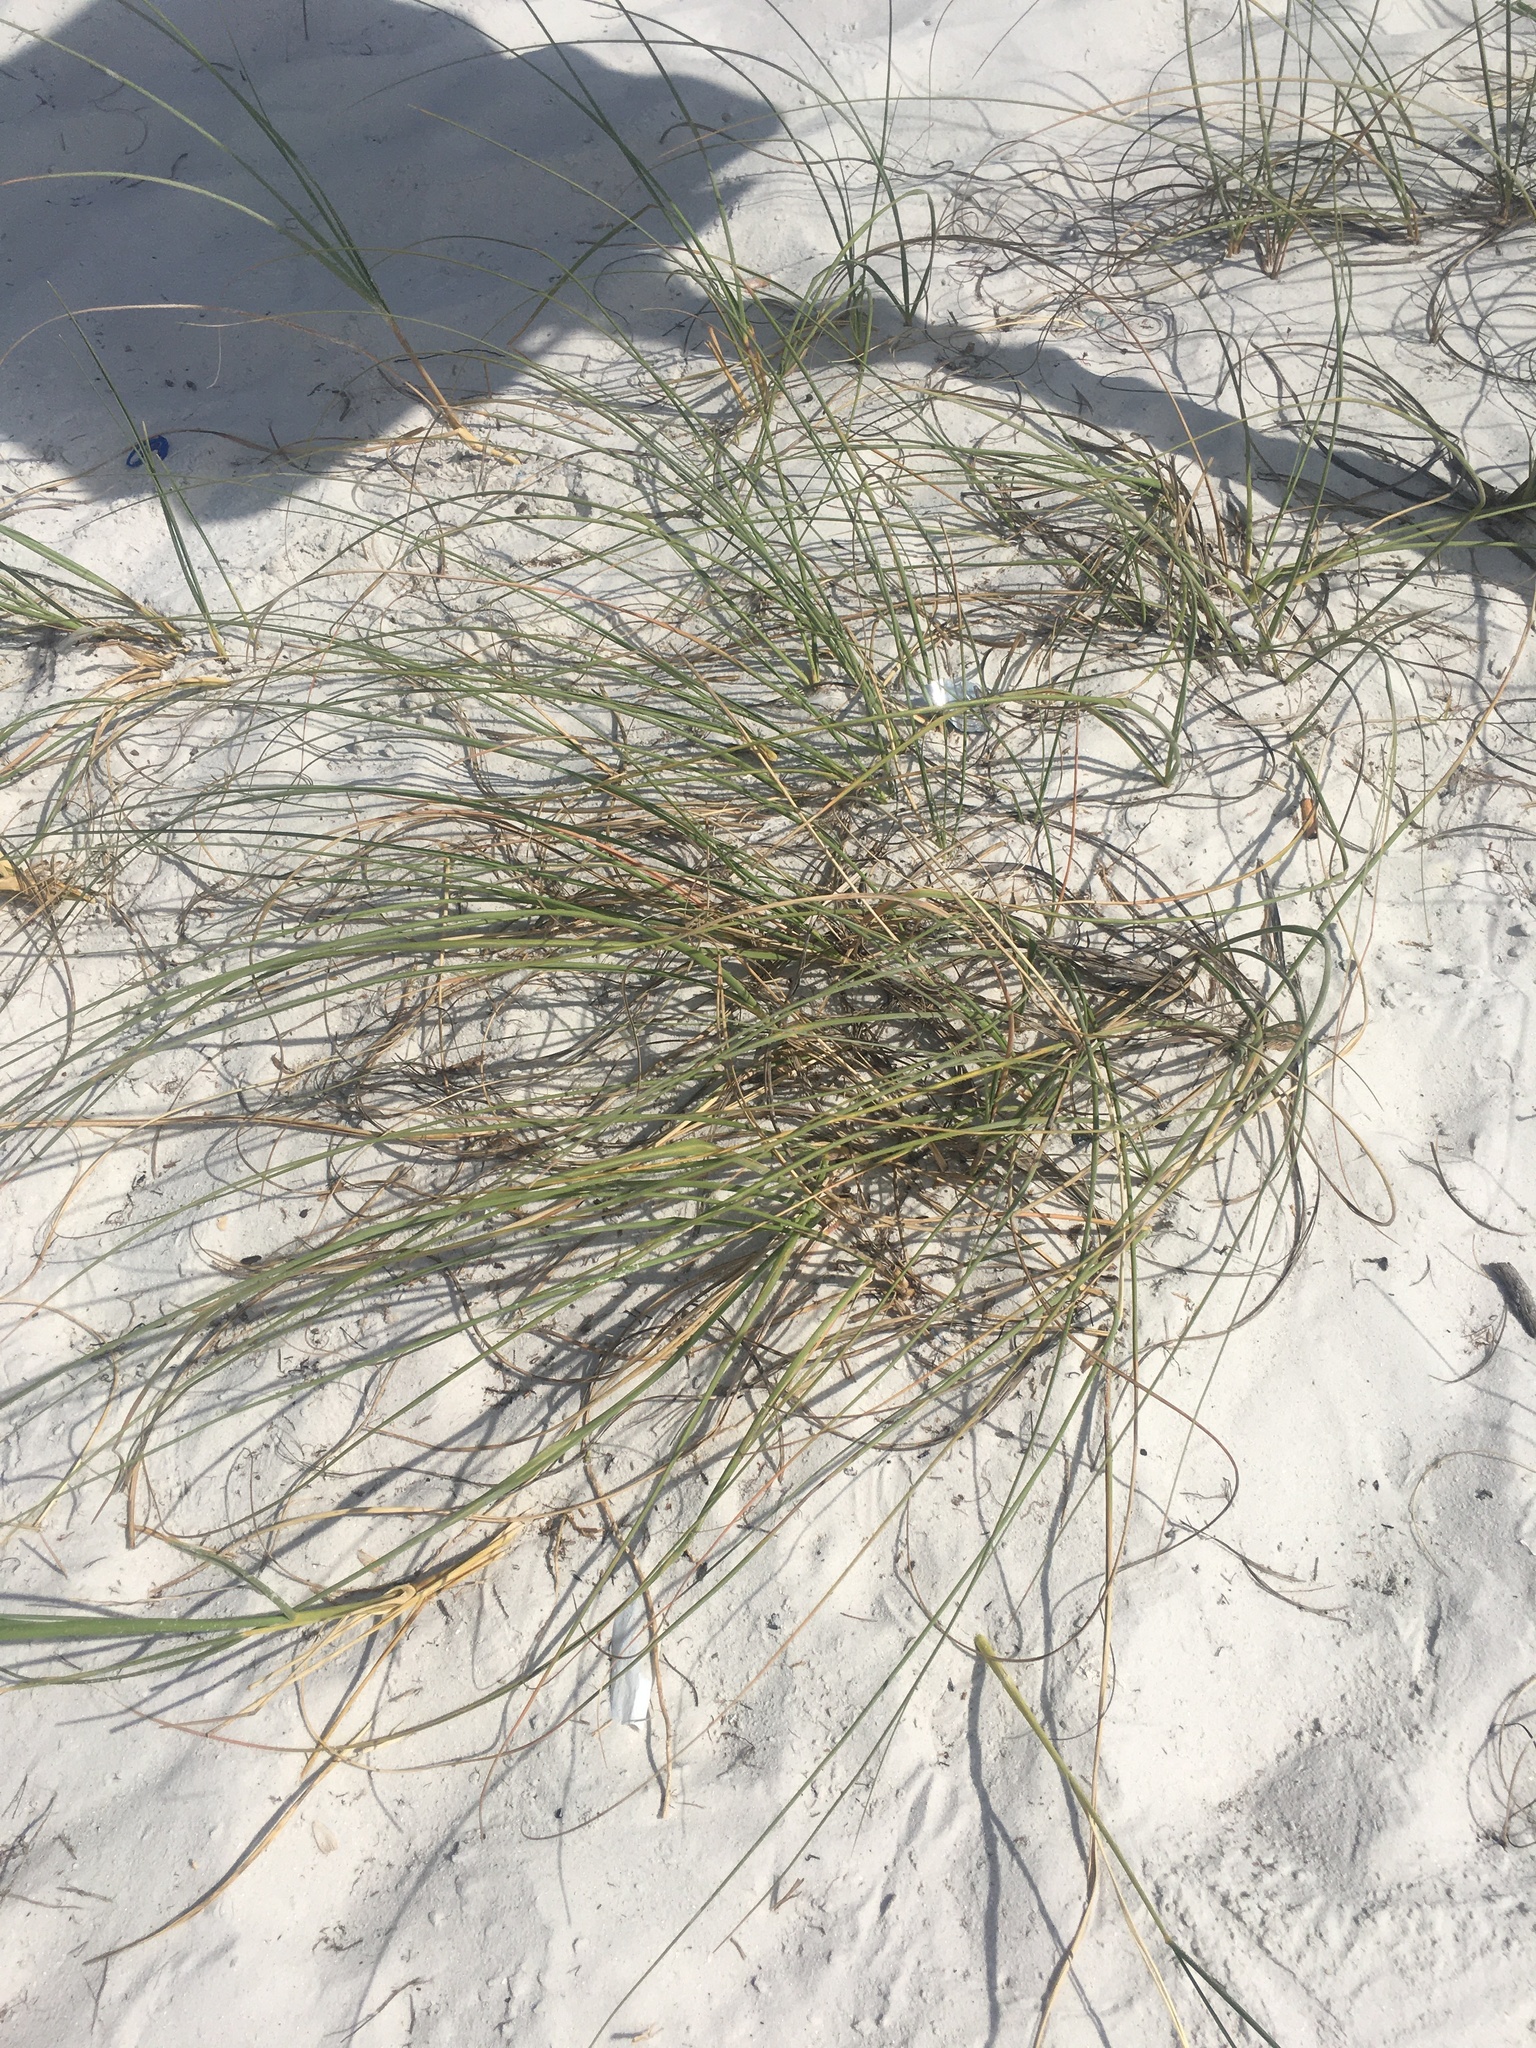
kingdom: Plantae
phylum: Tracheophyta
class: Liliopsida
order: Poales
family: Poaceae
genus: Uniola
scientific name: Uniola paniculata
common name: Seaside-oats
